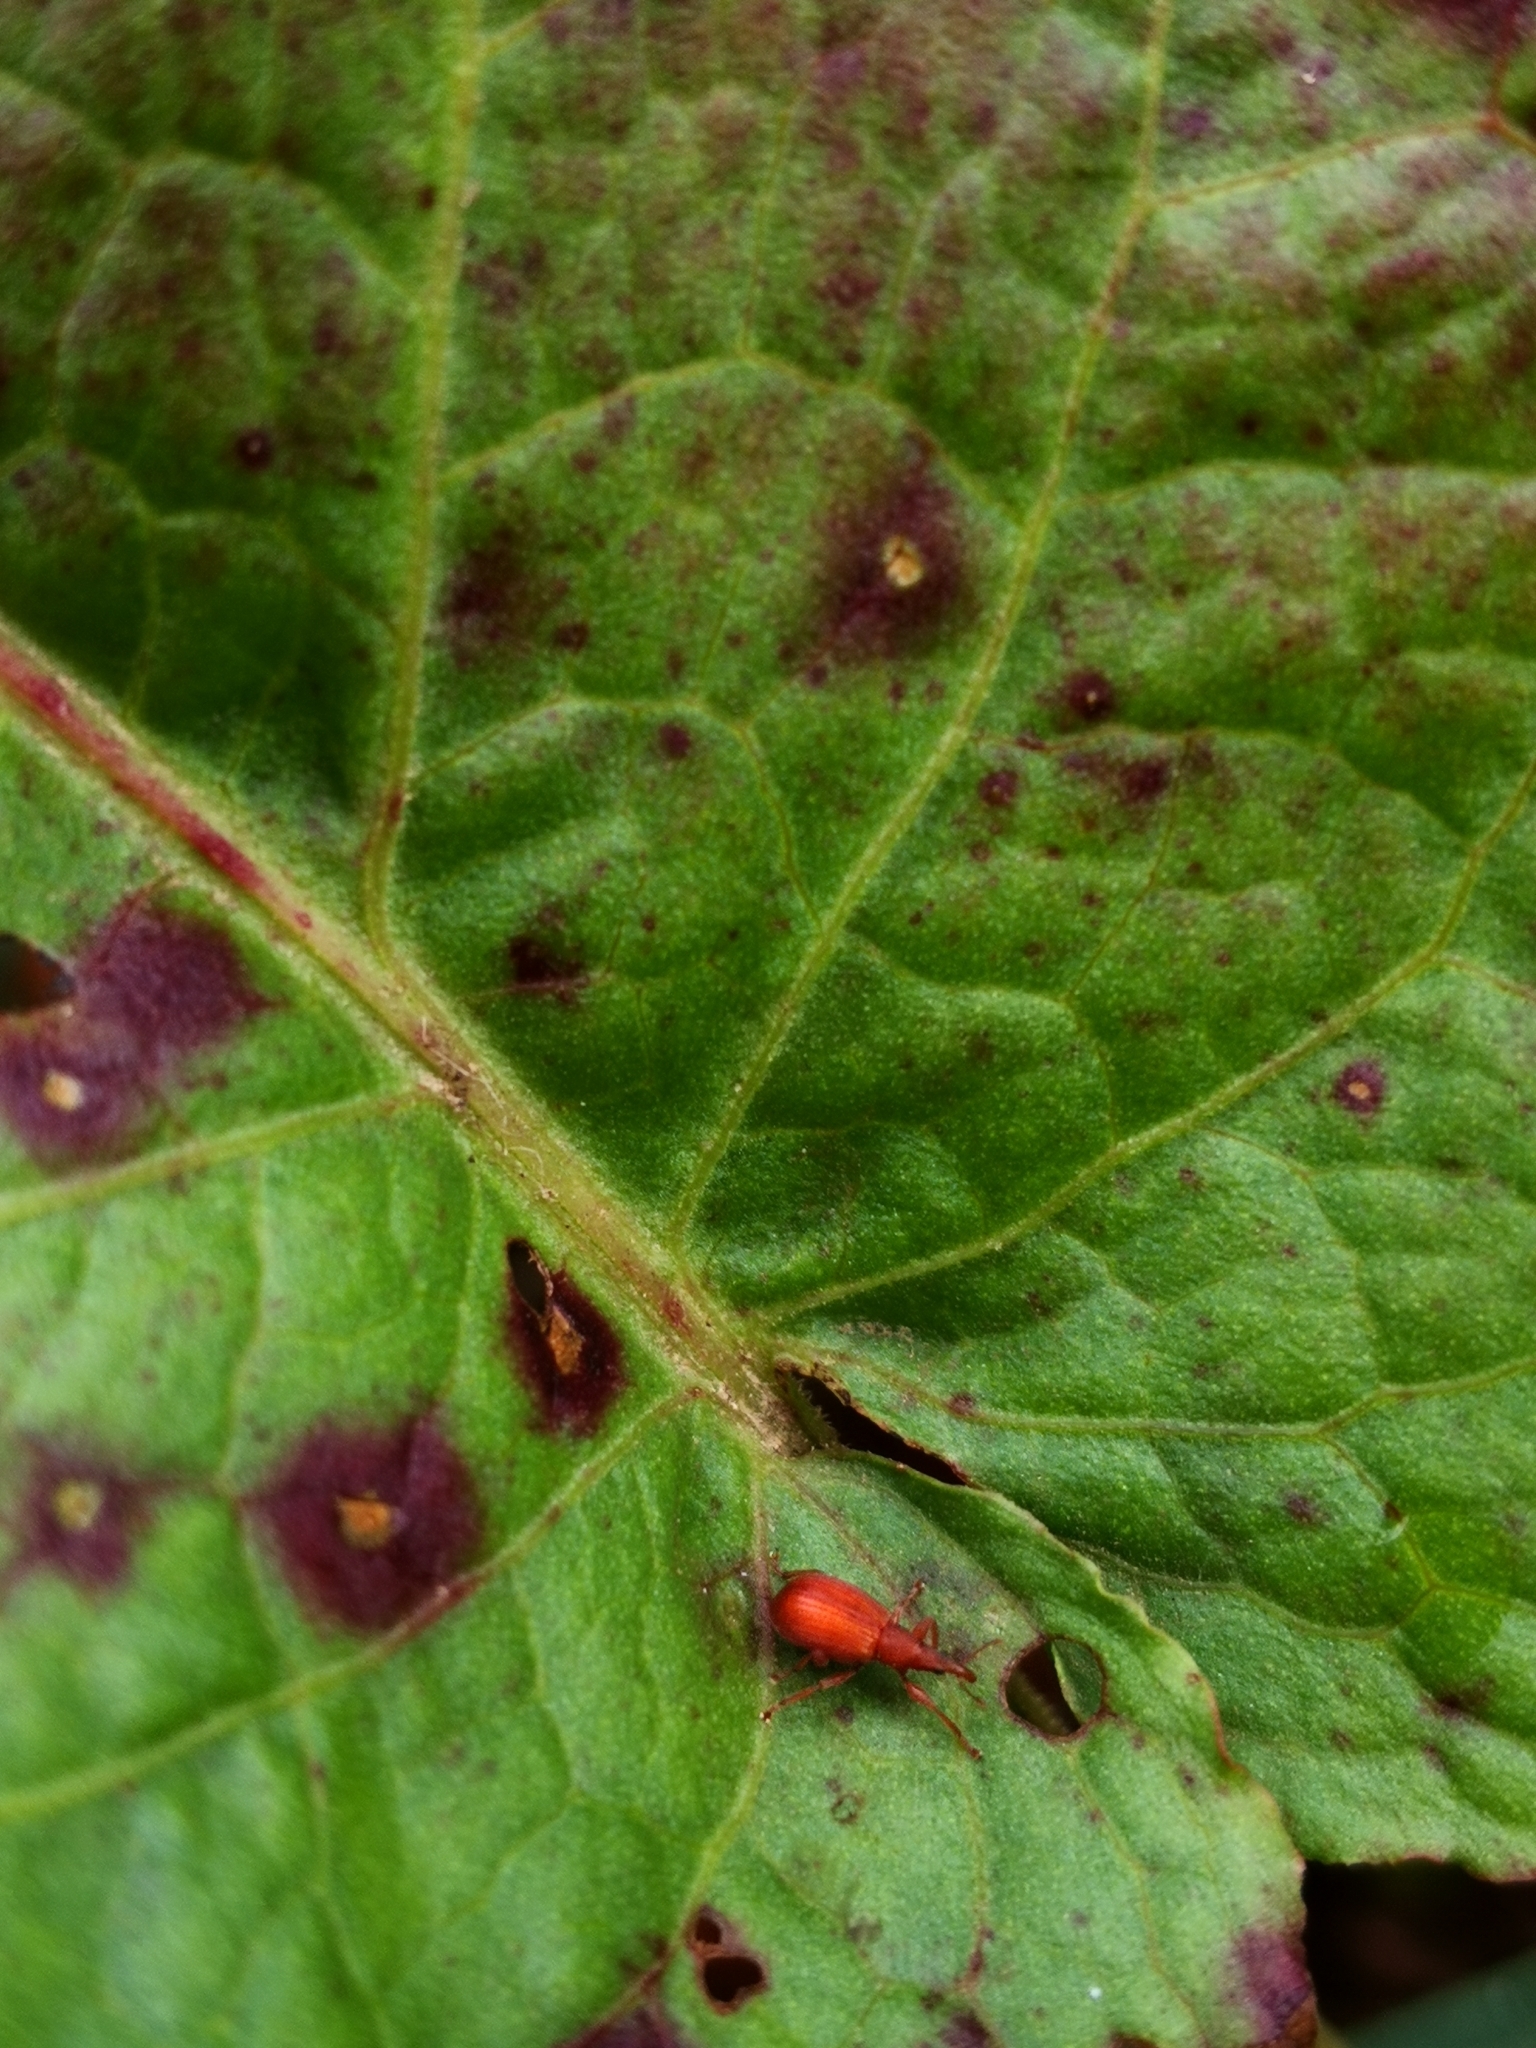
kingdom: Animalia
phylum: Arthropoda
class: Insecta
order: Coleoptera
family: Apionidae
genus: Apion
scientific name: Apion frumentarium
